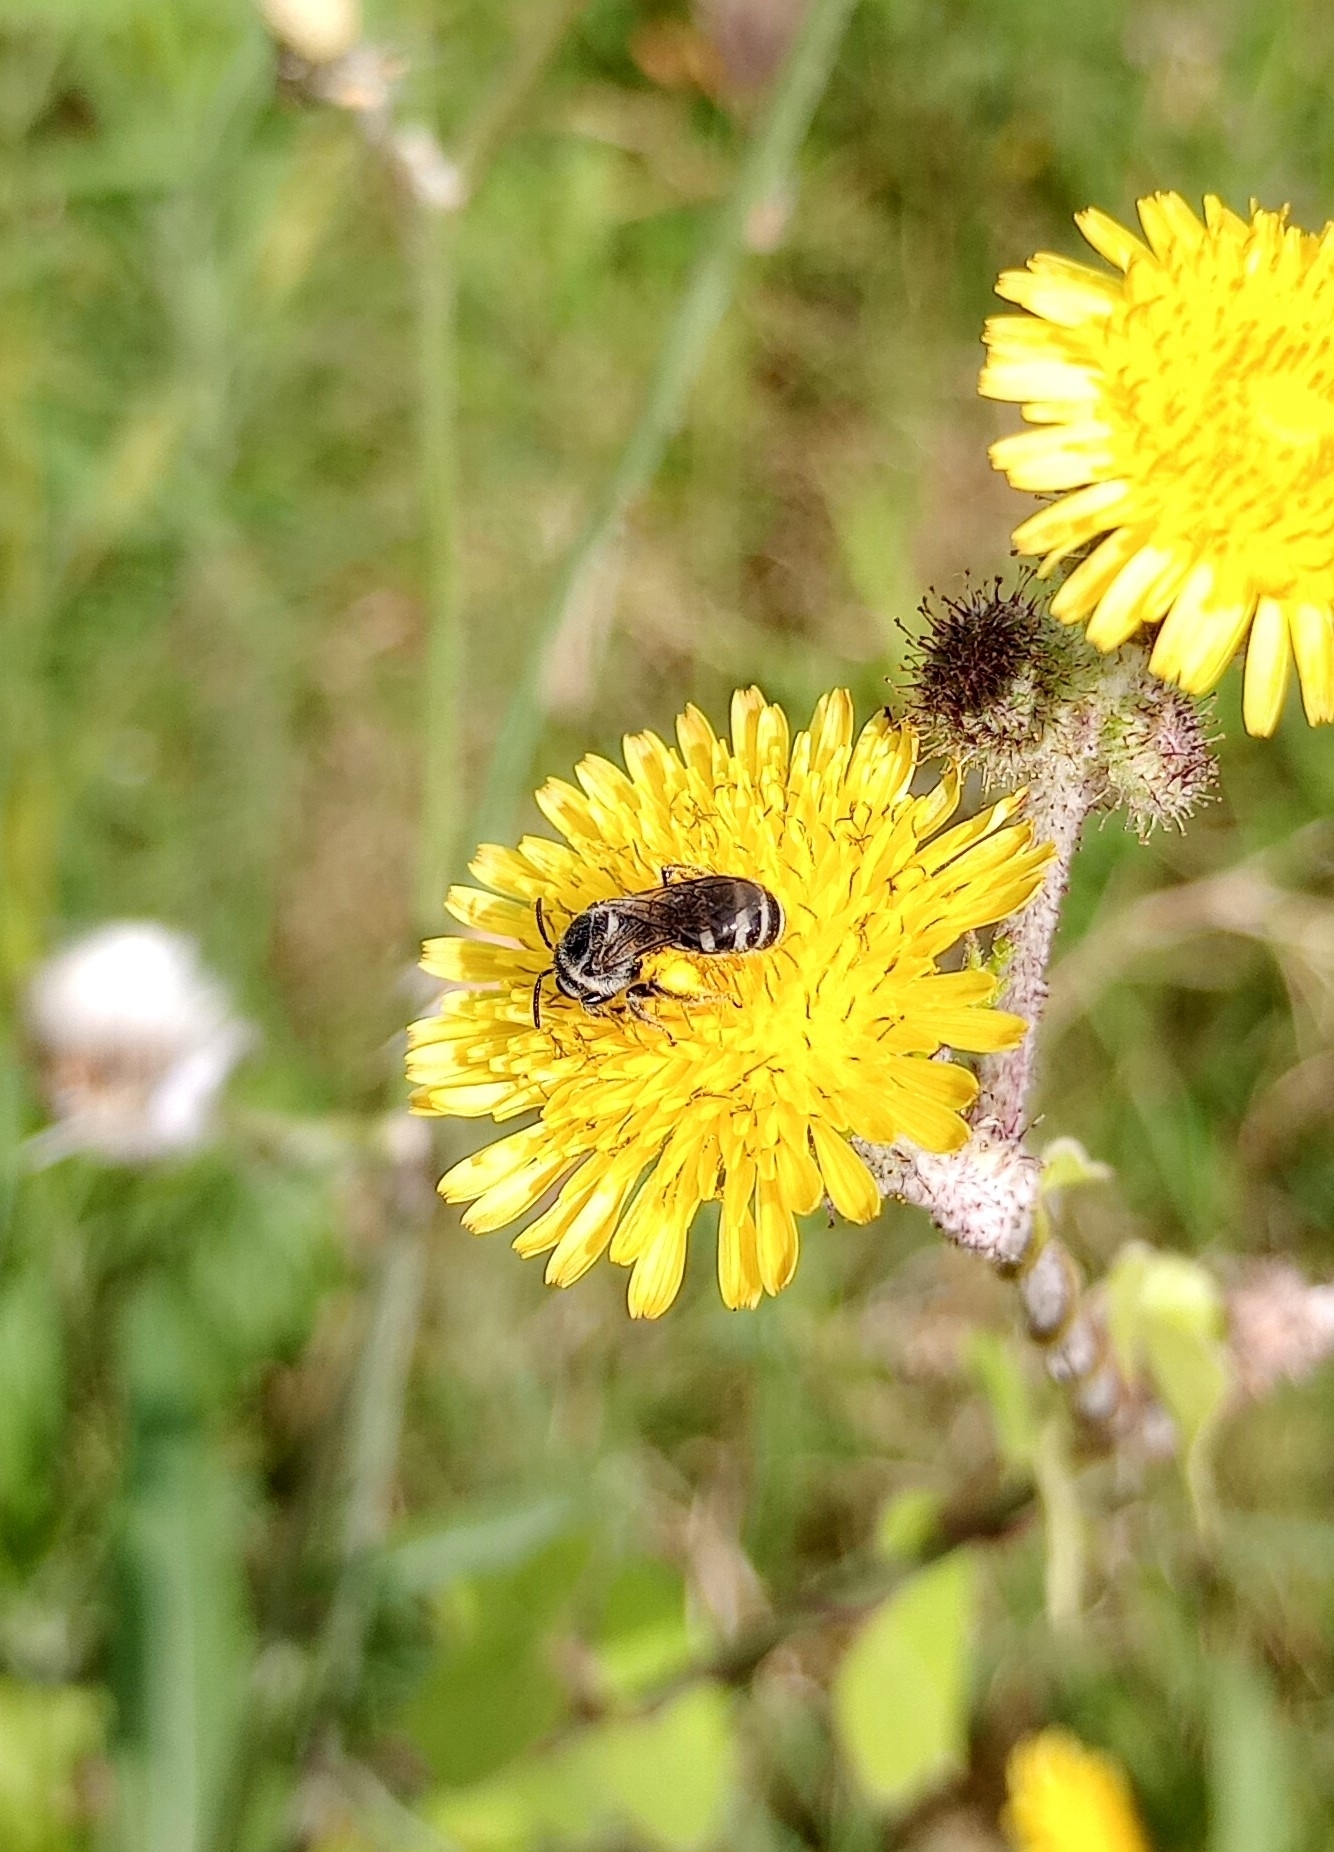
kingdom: Animalia
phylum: Arthropoda
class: Insecta
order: Hymenoptera
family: Halictidae
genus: Lasioglossum
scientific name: Lasioglossum albescens
